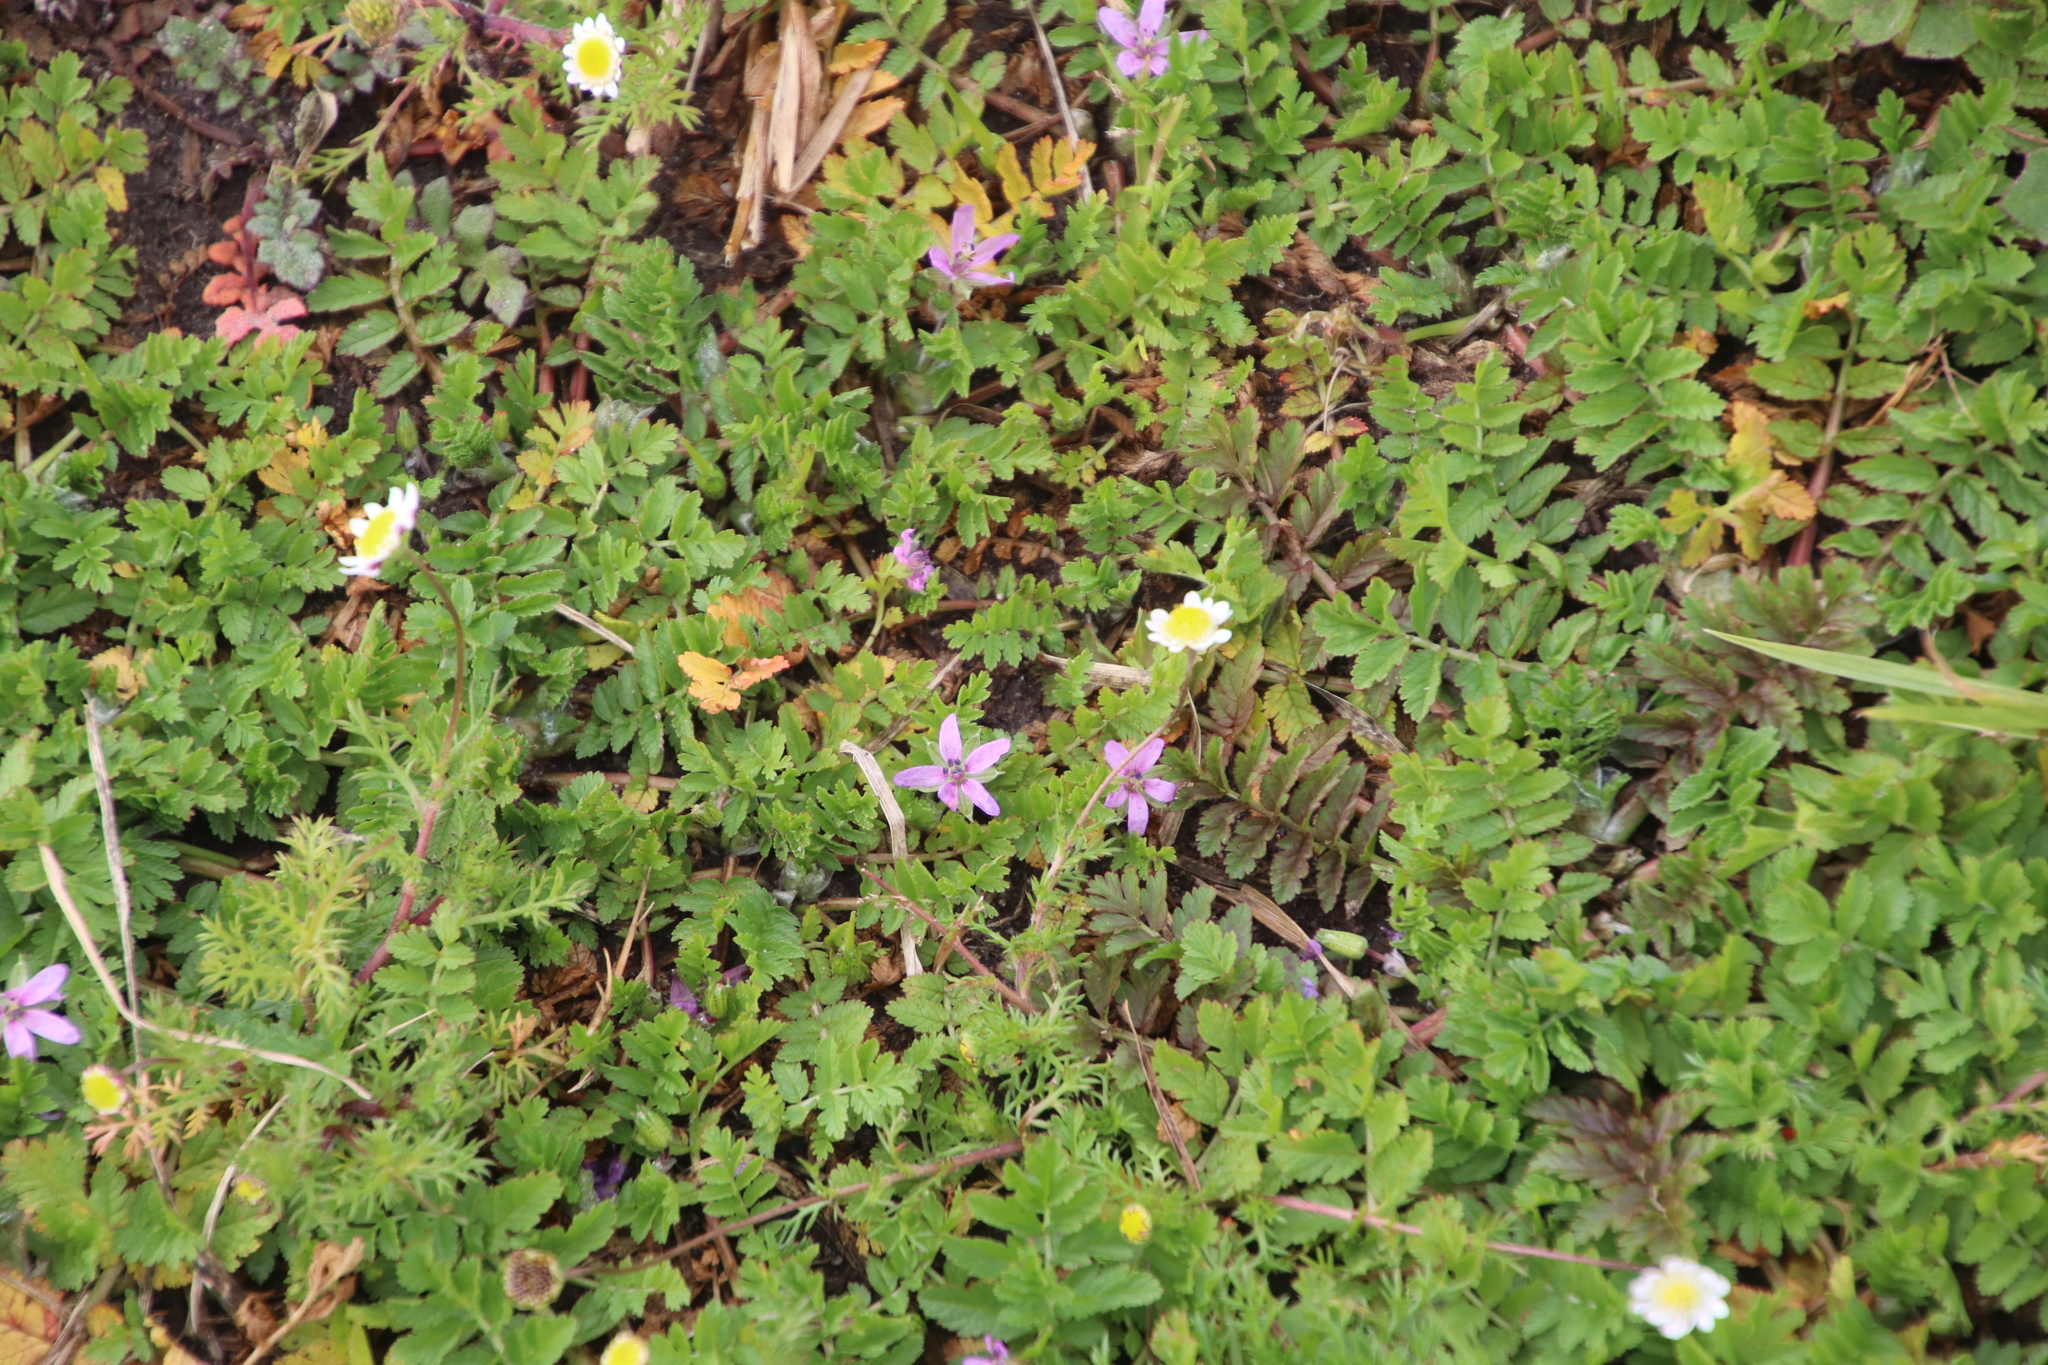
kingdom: Plantae
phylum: Tracheophyta
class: Magnoliopsida
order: Geraniales
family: Geraniaceae
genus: Erodium
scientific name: Erodium moschatum
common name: Musk stork's-bill
